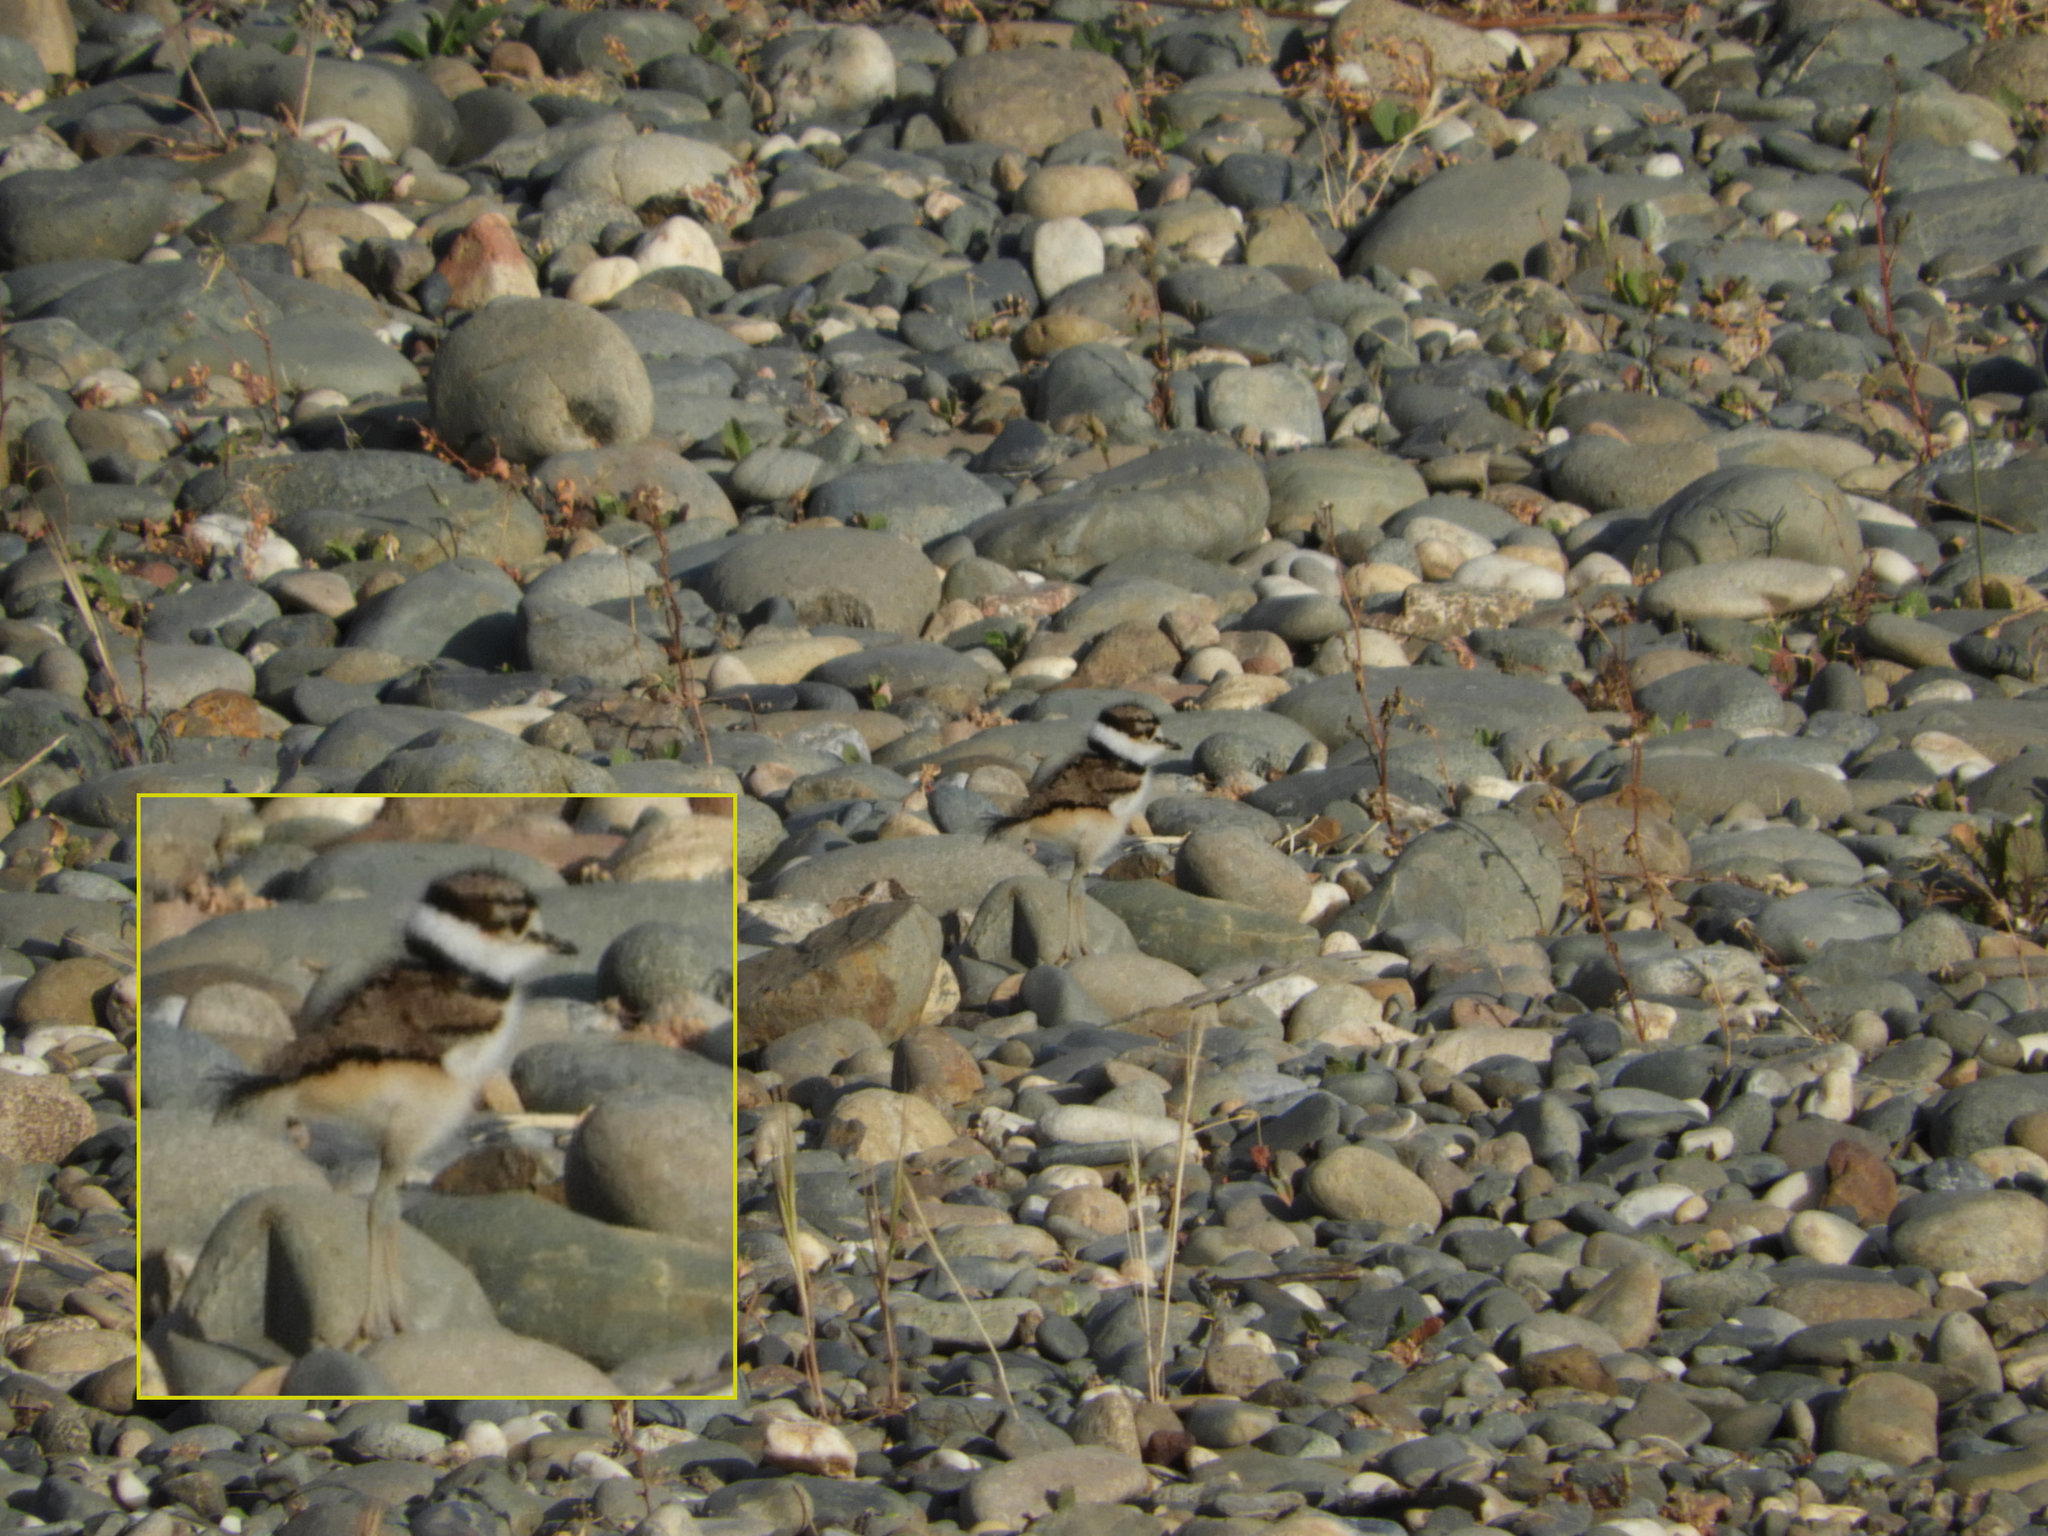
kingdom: Animalia
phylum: Chordata
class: Aves
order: Charadriiformes
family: Charadriidae
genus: Charadrius
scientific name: Charadrius vociferus
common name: Killdeer
